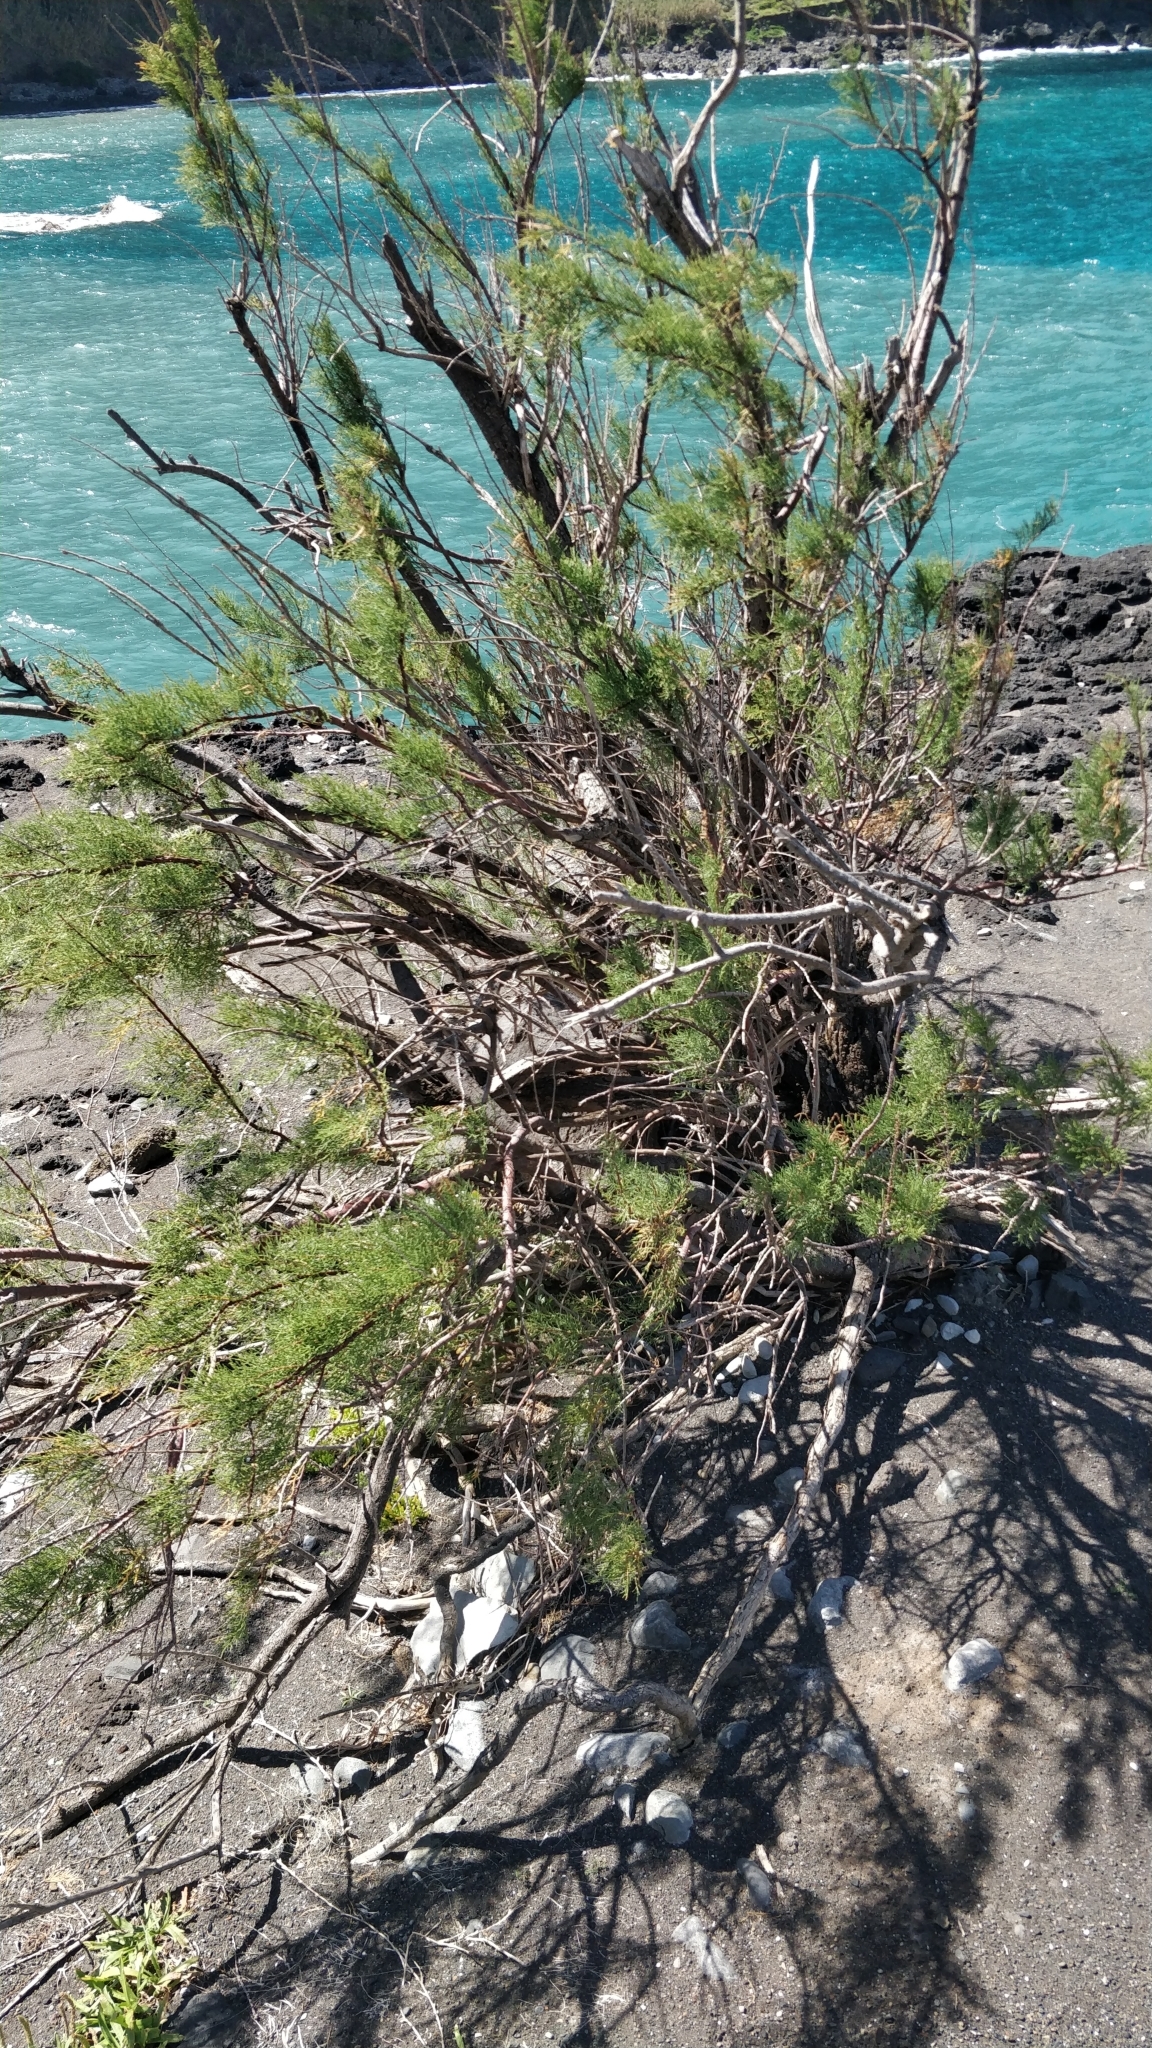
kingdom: Plantae
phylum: Tracheophyta
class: Magnoliopsida
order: Caryophyllales
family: Tamaricaceae
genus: Tamarix
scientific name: Tamarix gallica
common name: Tamarisk
